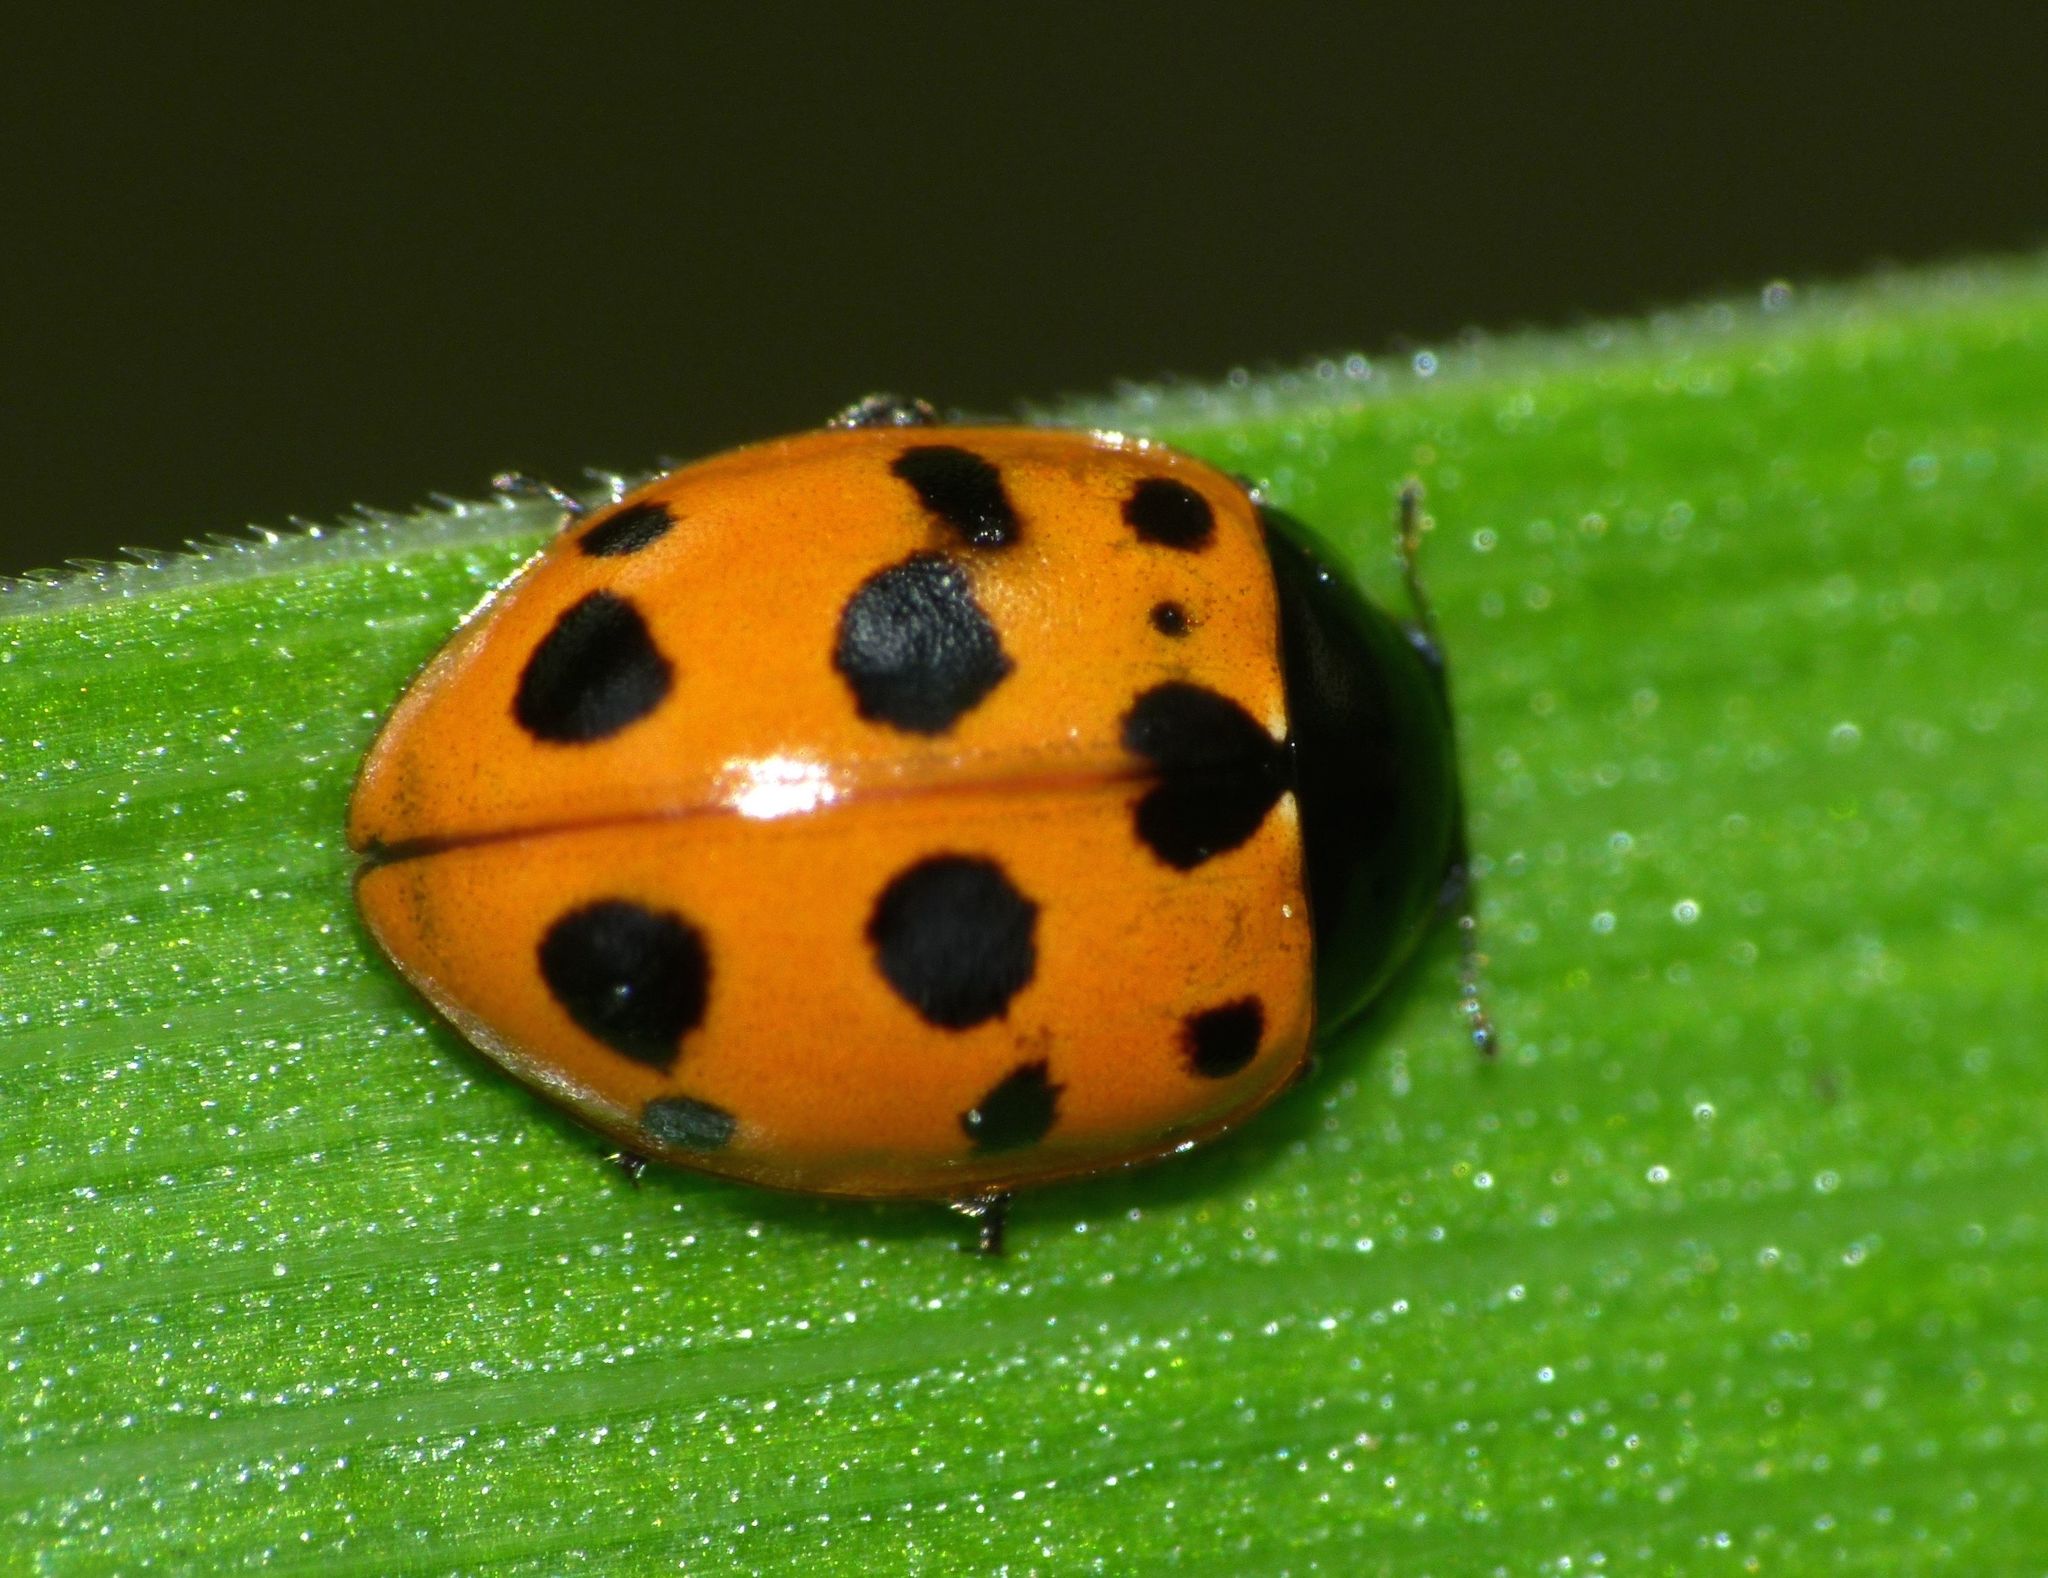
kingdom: Animalia
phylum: Arthropoda
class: Insecta
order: Coleoptera
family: Coccinellidae
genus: Coccinella
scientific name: Coccinella undecimpunctata
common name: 11-spot ladybird
